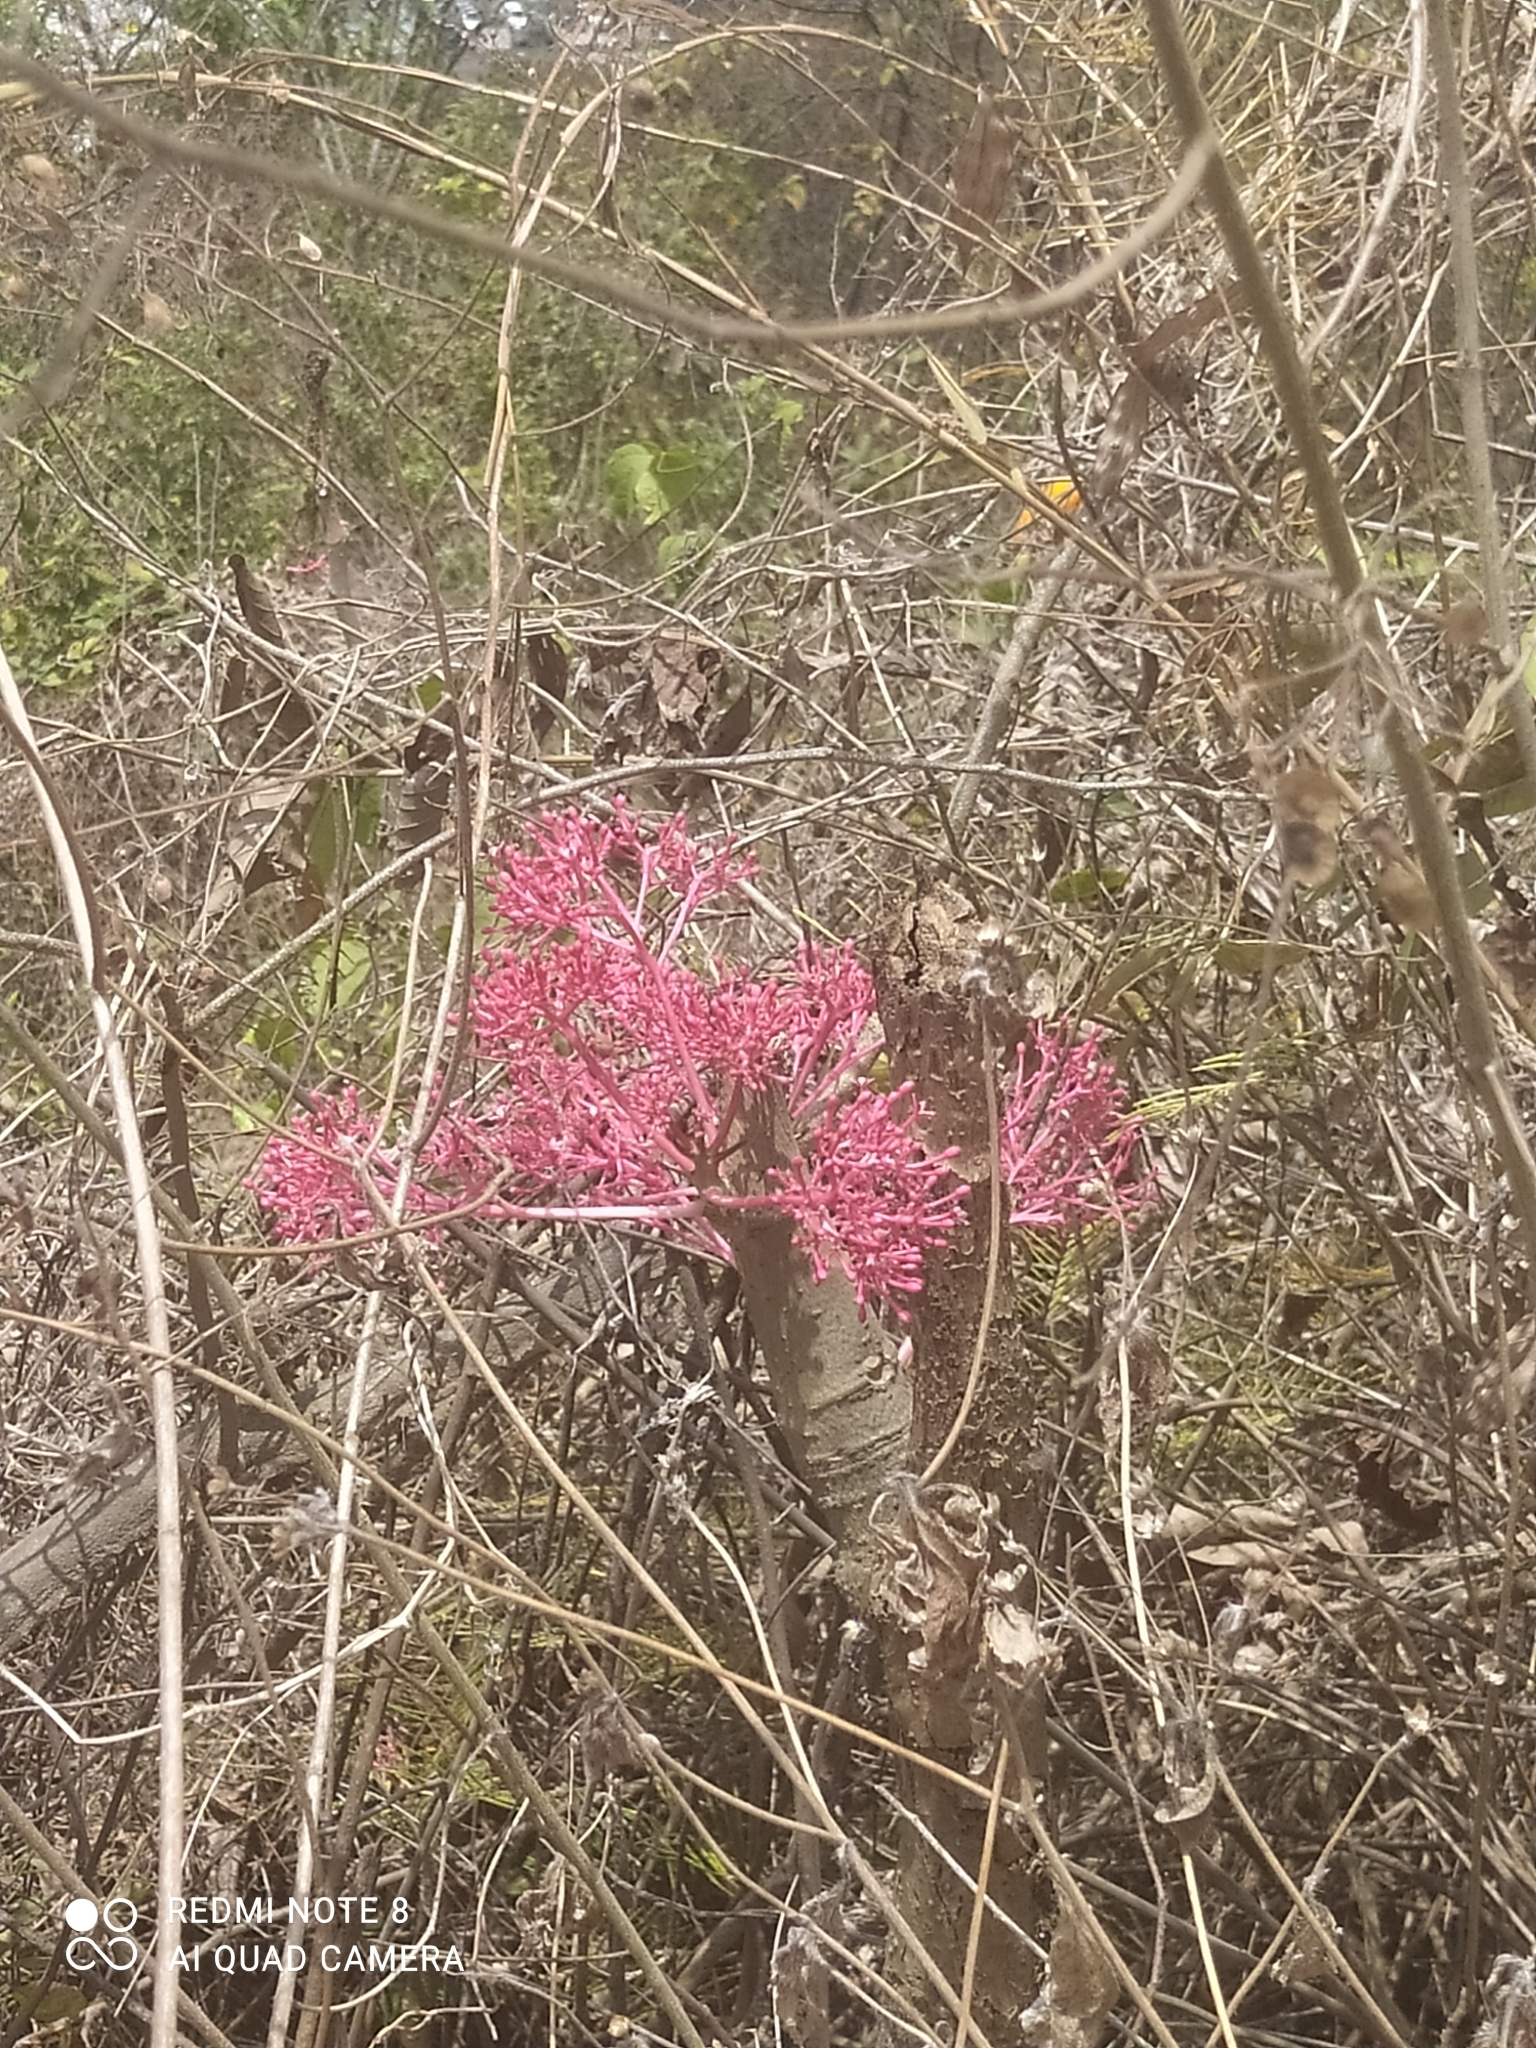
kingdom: Plantae
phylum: Tracheophyta
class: Magnoliopsida
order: Brassicales
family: Caricaceae
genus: Vasconcellea
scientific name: Vasconcellea parviflora
